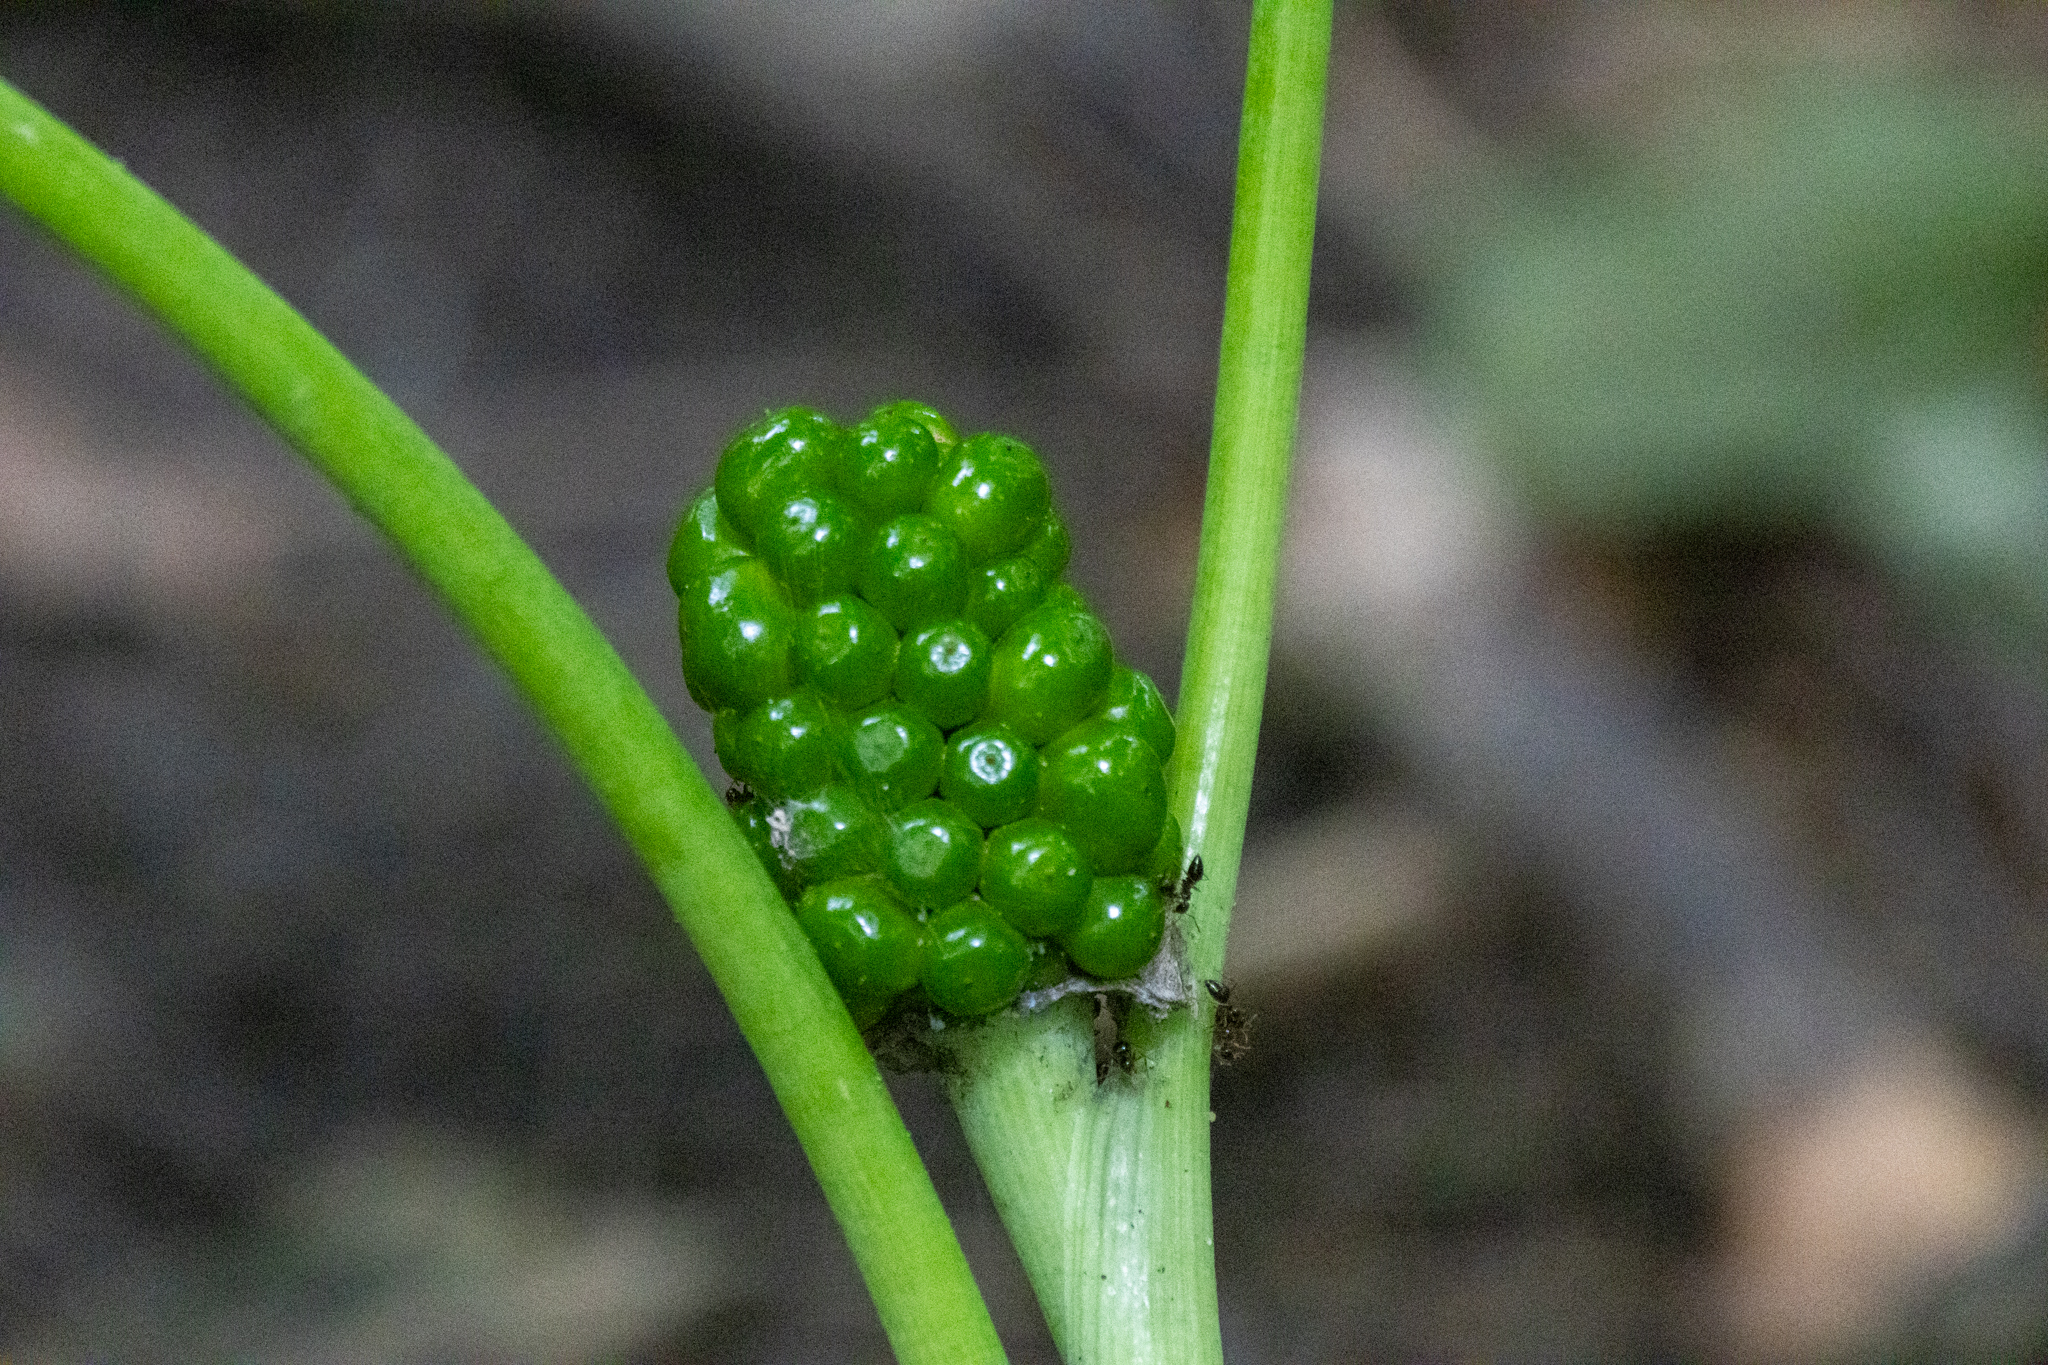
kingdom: Plantae
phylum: Tracheophyta
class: Liliopsida
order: Alismatales
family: Araceae
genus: Arisaema
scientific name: Arisaema triphyllum
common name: Jack-in-the-pulpit
